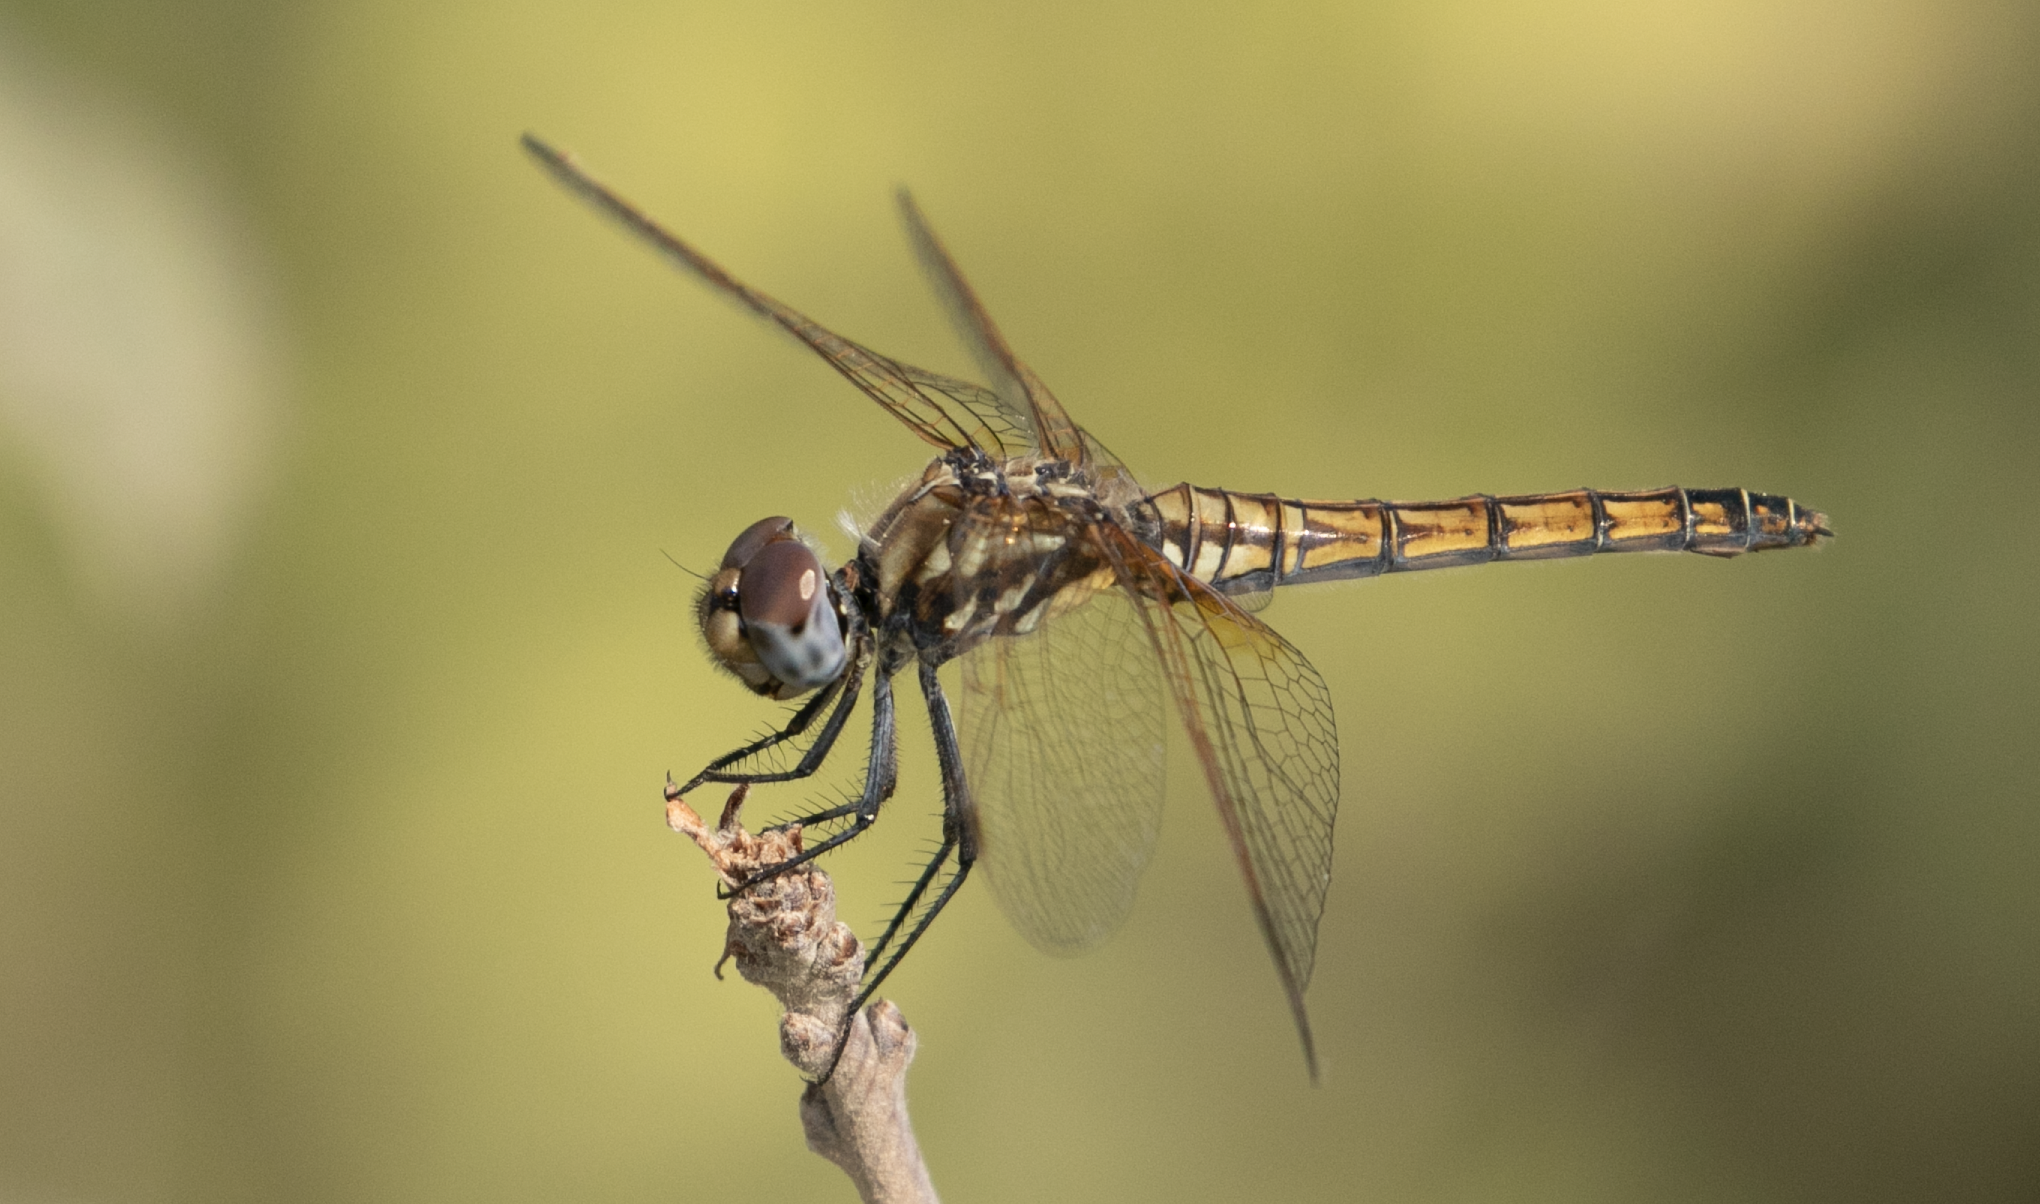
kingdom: Animalia
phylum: Arthropoda
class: Insecta
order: Odonata
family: Libellulidae
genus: Trithemis
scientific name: Trithemis annulata
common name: Violet dropwing
